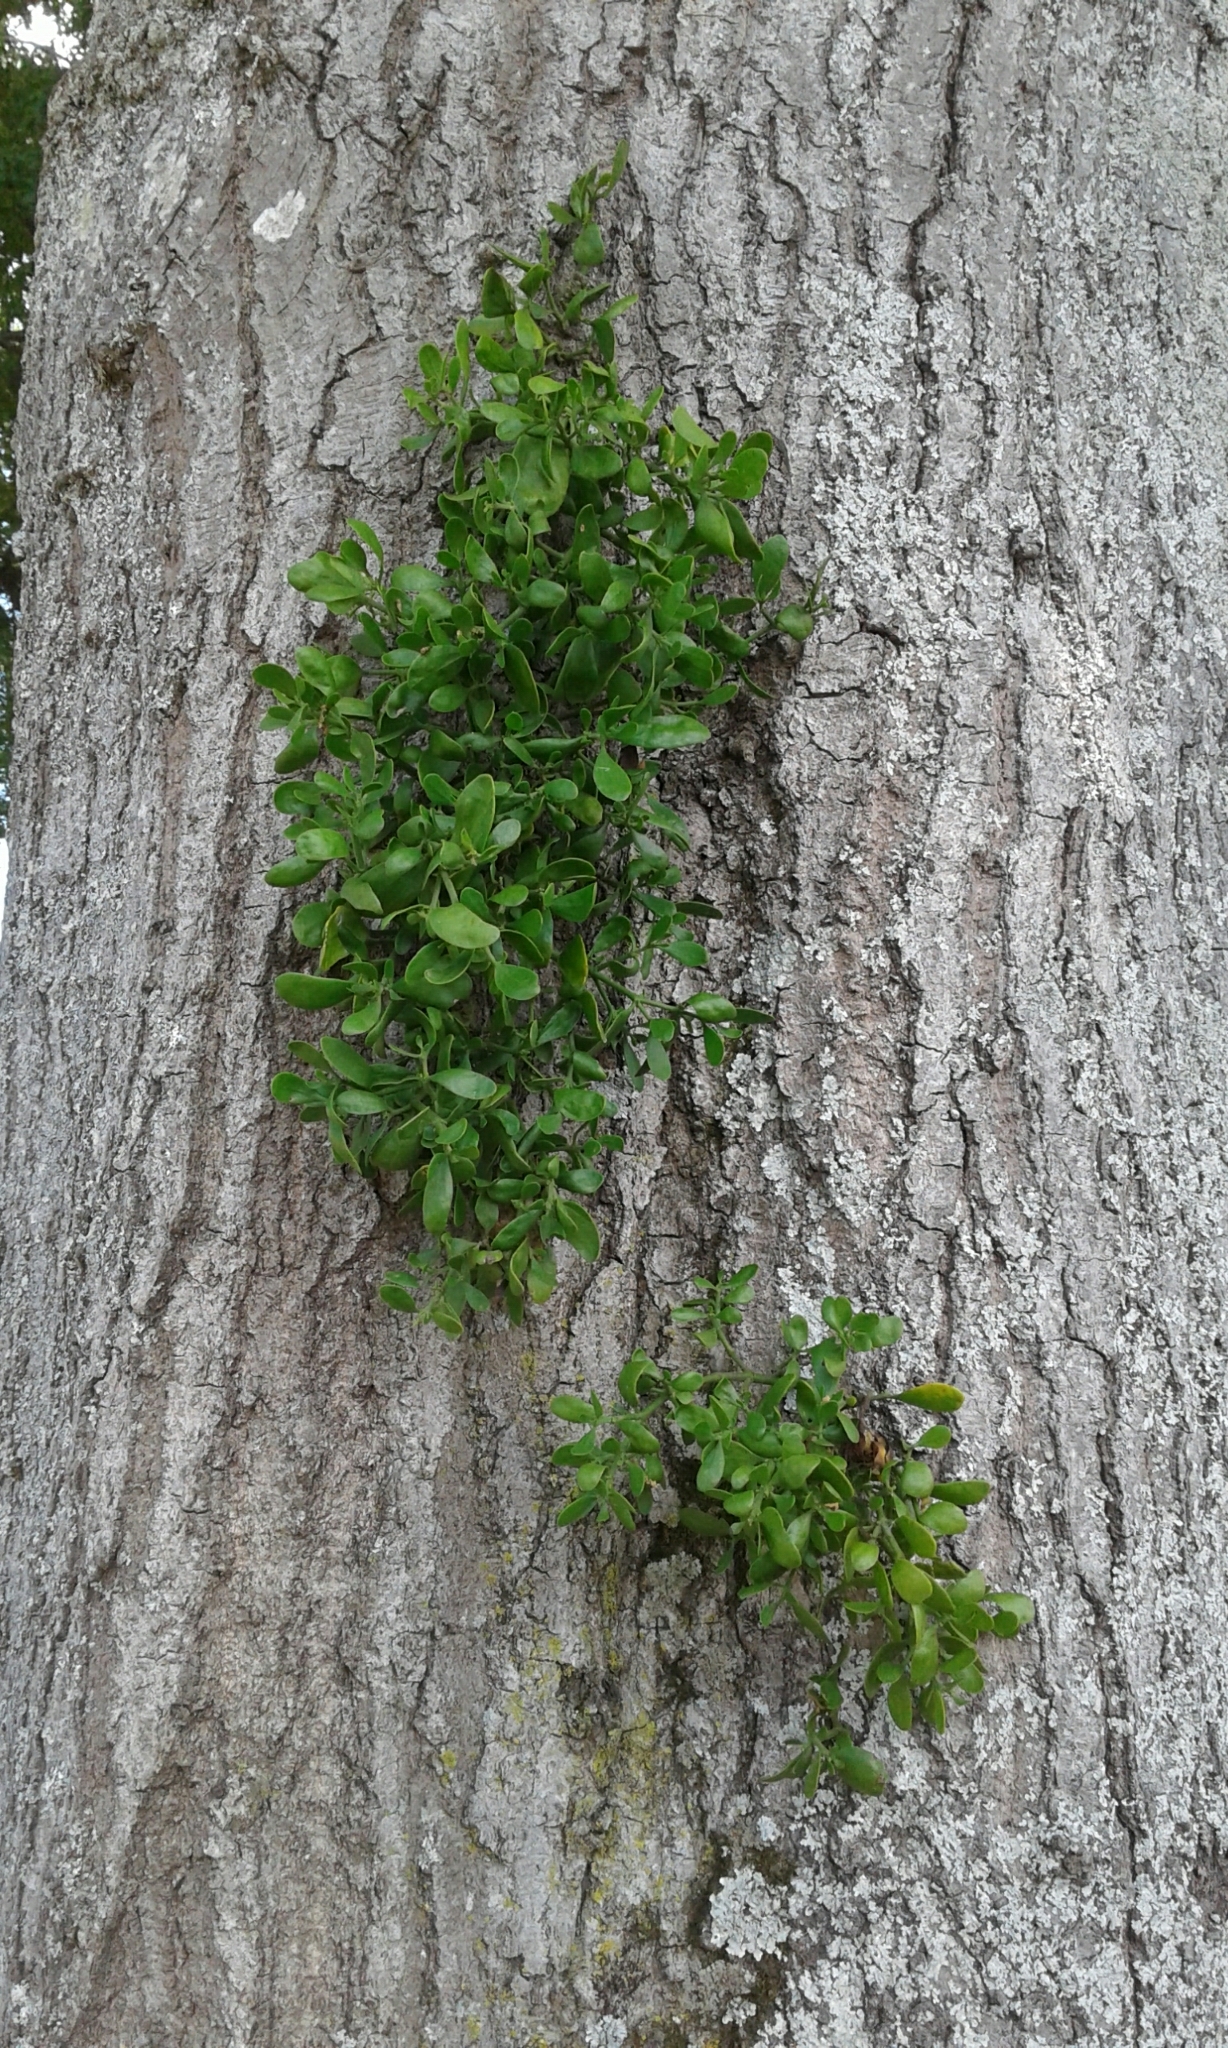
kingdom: Plantae
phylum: Tracheophyta
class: Magnoliopsida
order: Santalales
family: Viscaceae
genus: Phoradendron
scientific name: Phoradendron leucarpum
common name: Pacific mistletoe
